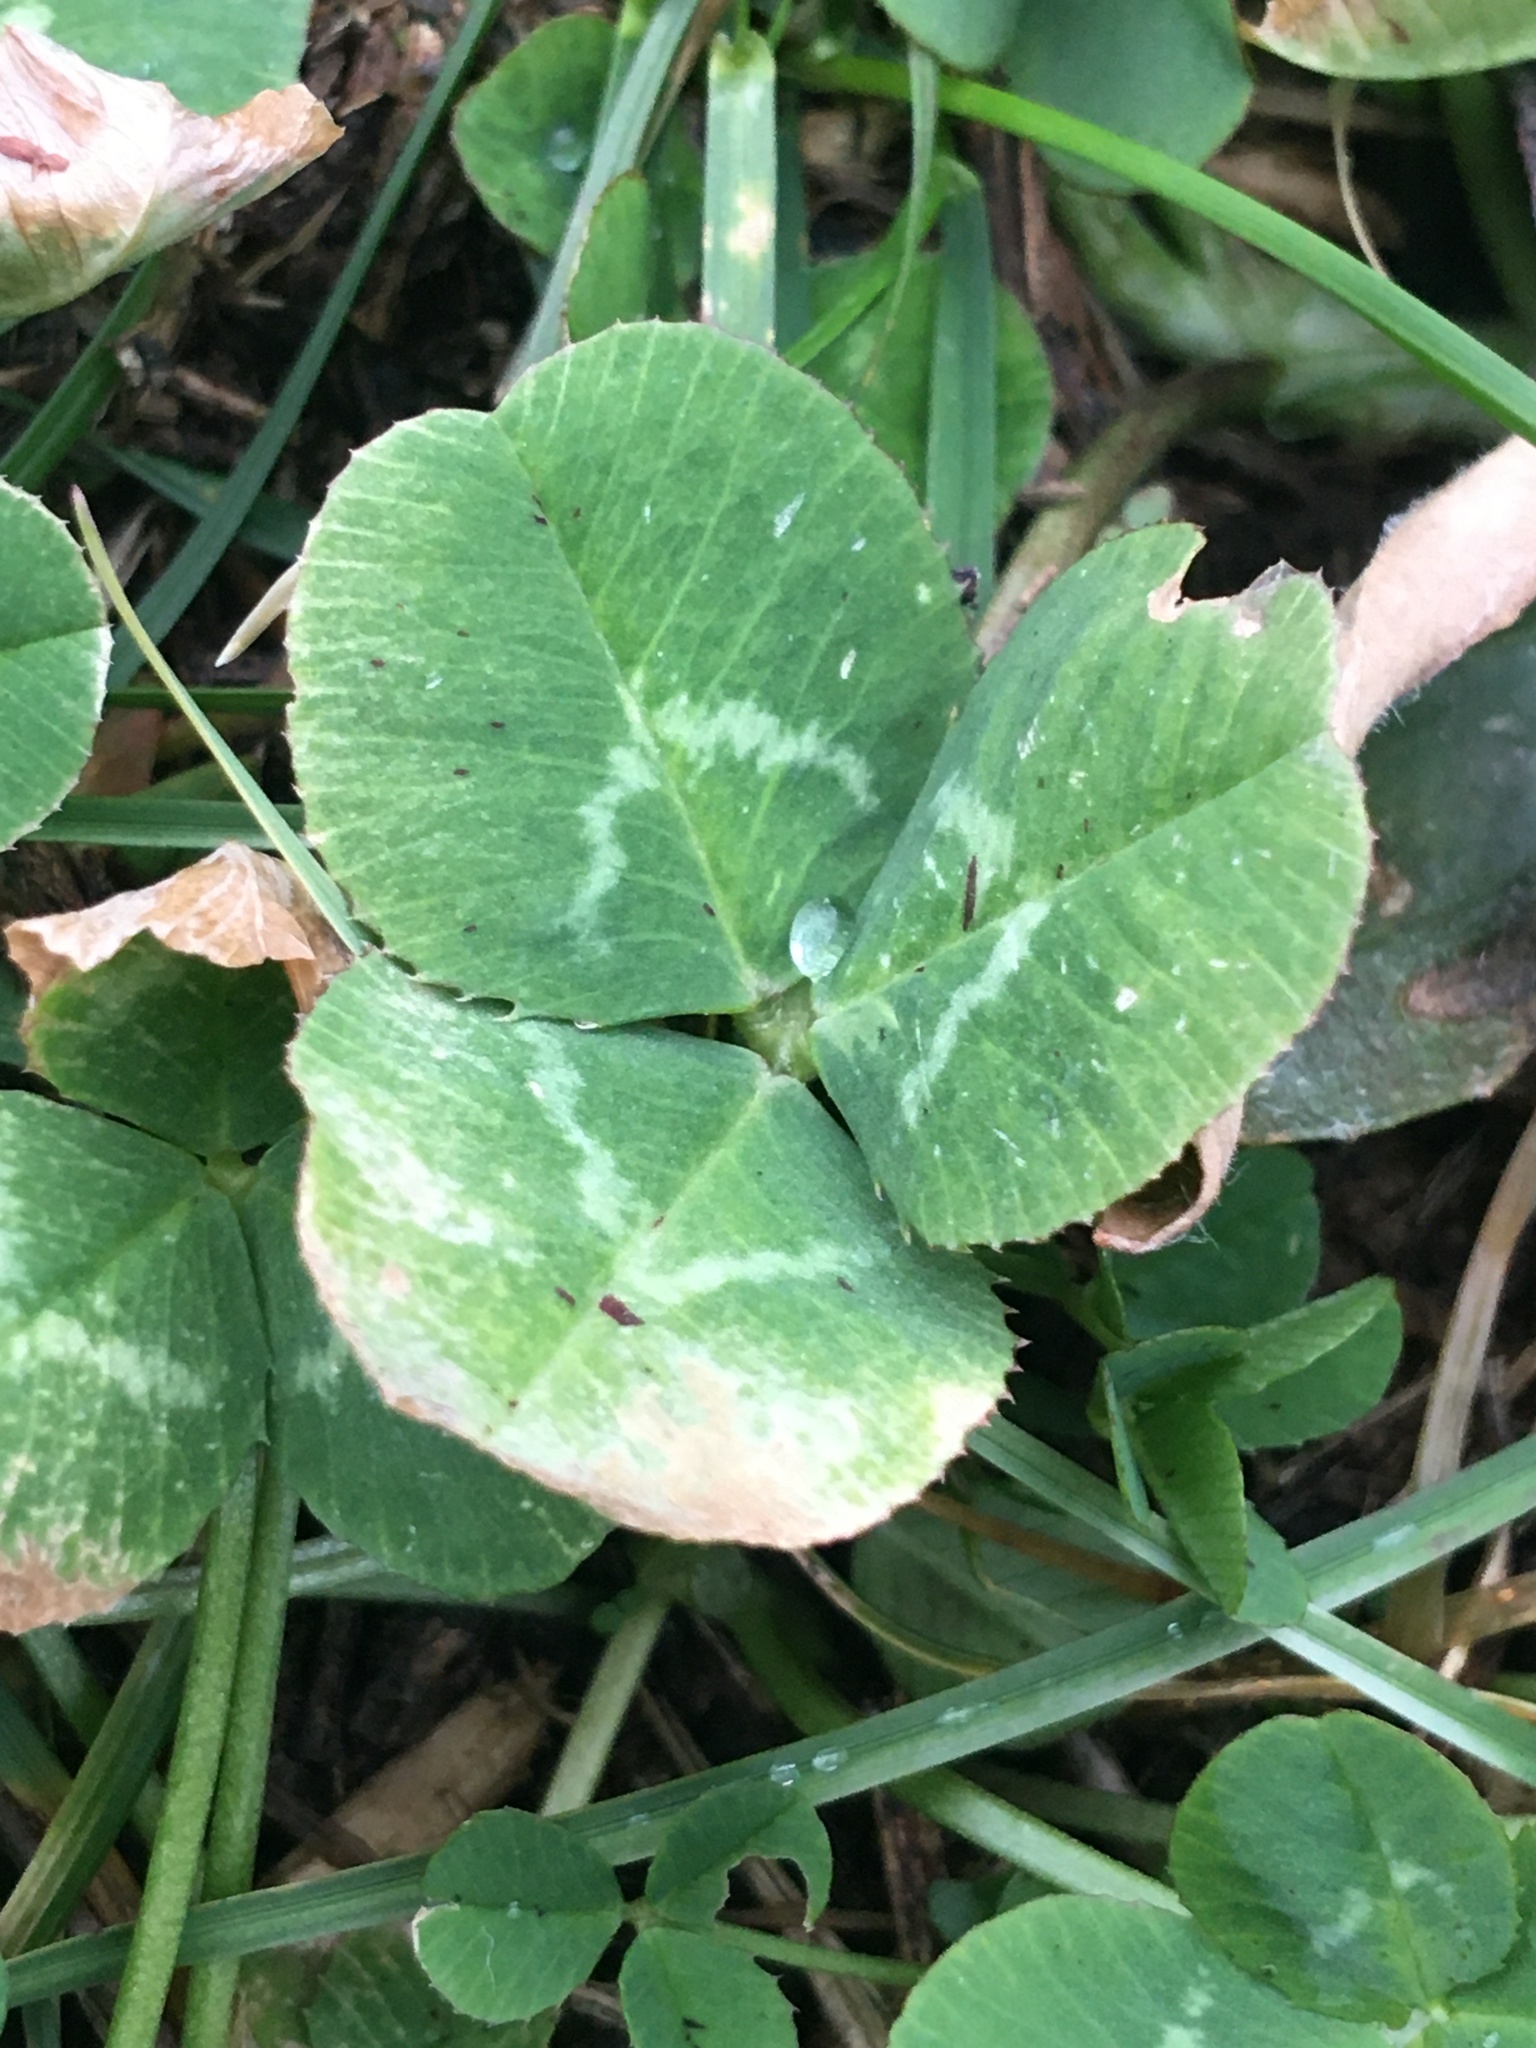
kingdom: Plantae
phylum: Tracheophyta
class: Magnoliopsida
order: Fabales
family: Fabaceae
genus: Trifolium
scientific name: Trifolium repens
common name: White clover
